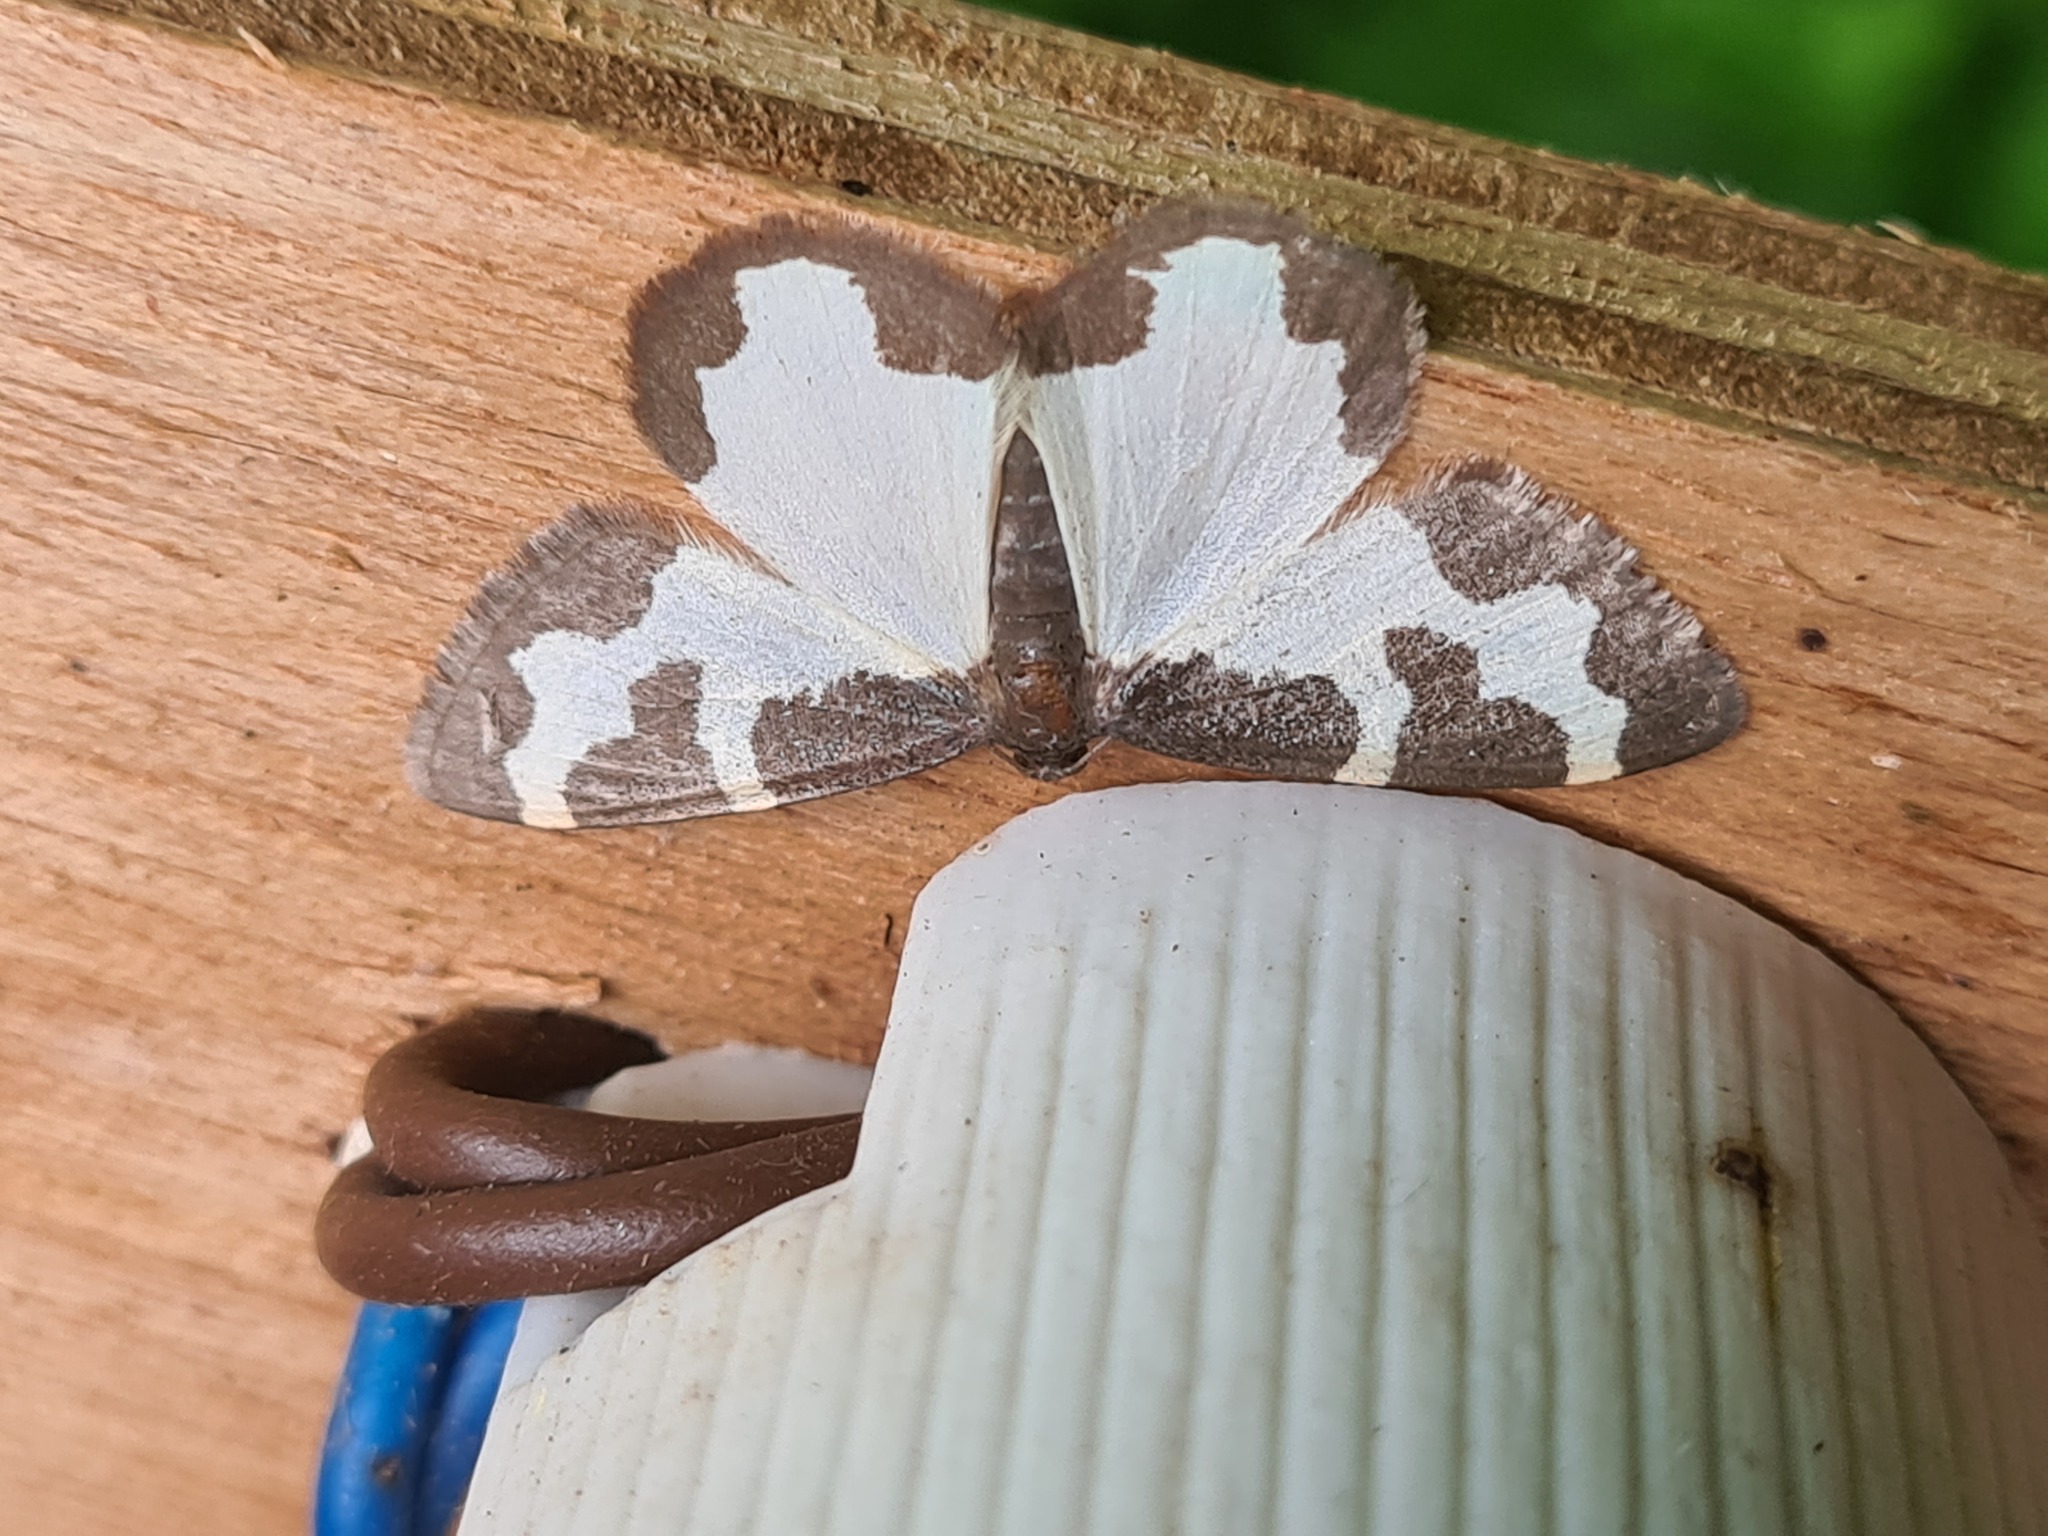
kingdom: Animalia
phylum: Arthropoda
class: Insecta
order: Lepidoptera
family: Geometridae
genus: Lomaspilis
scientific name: Lomaspilis marginata
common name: Clouded border
